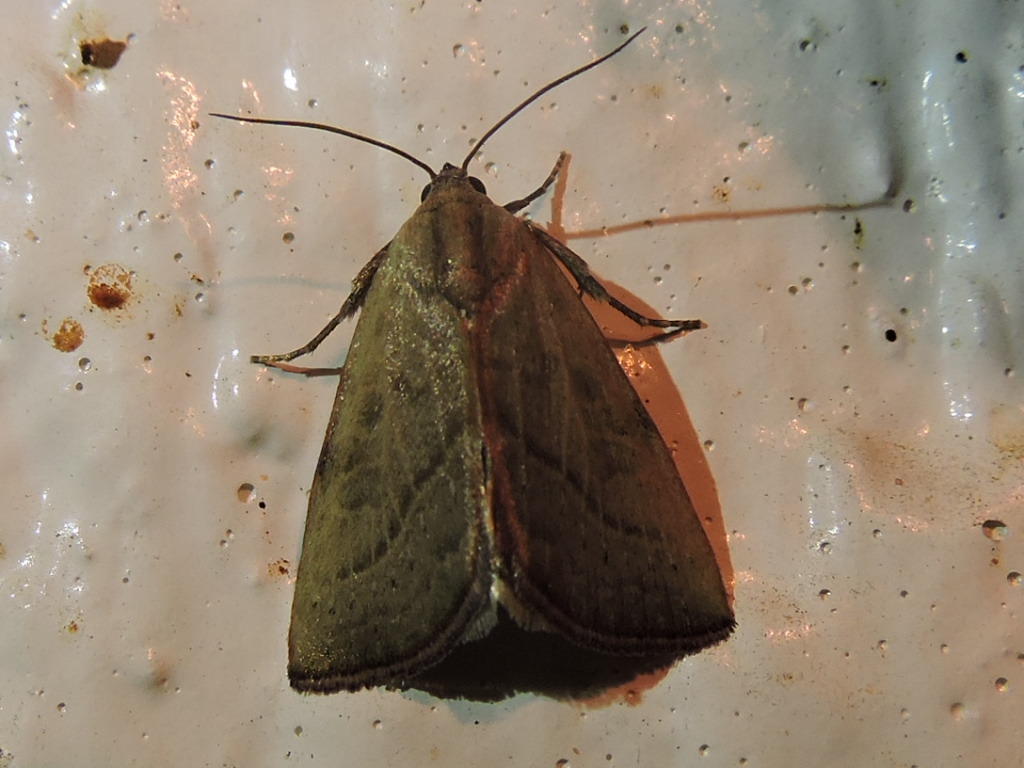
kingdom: Animalia
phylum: Arthropoda
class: Insecta
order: Lepidoptera
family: Noctuidae
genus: Galgula
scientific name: Galgula partita
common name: Wedgeling
